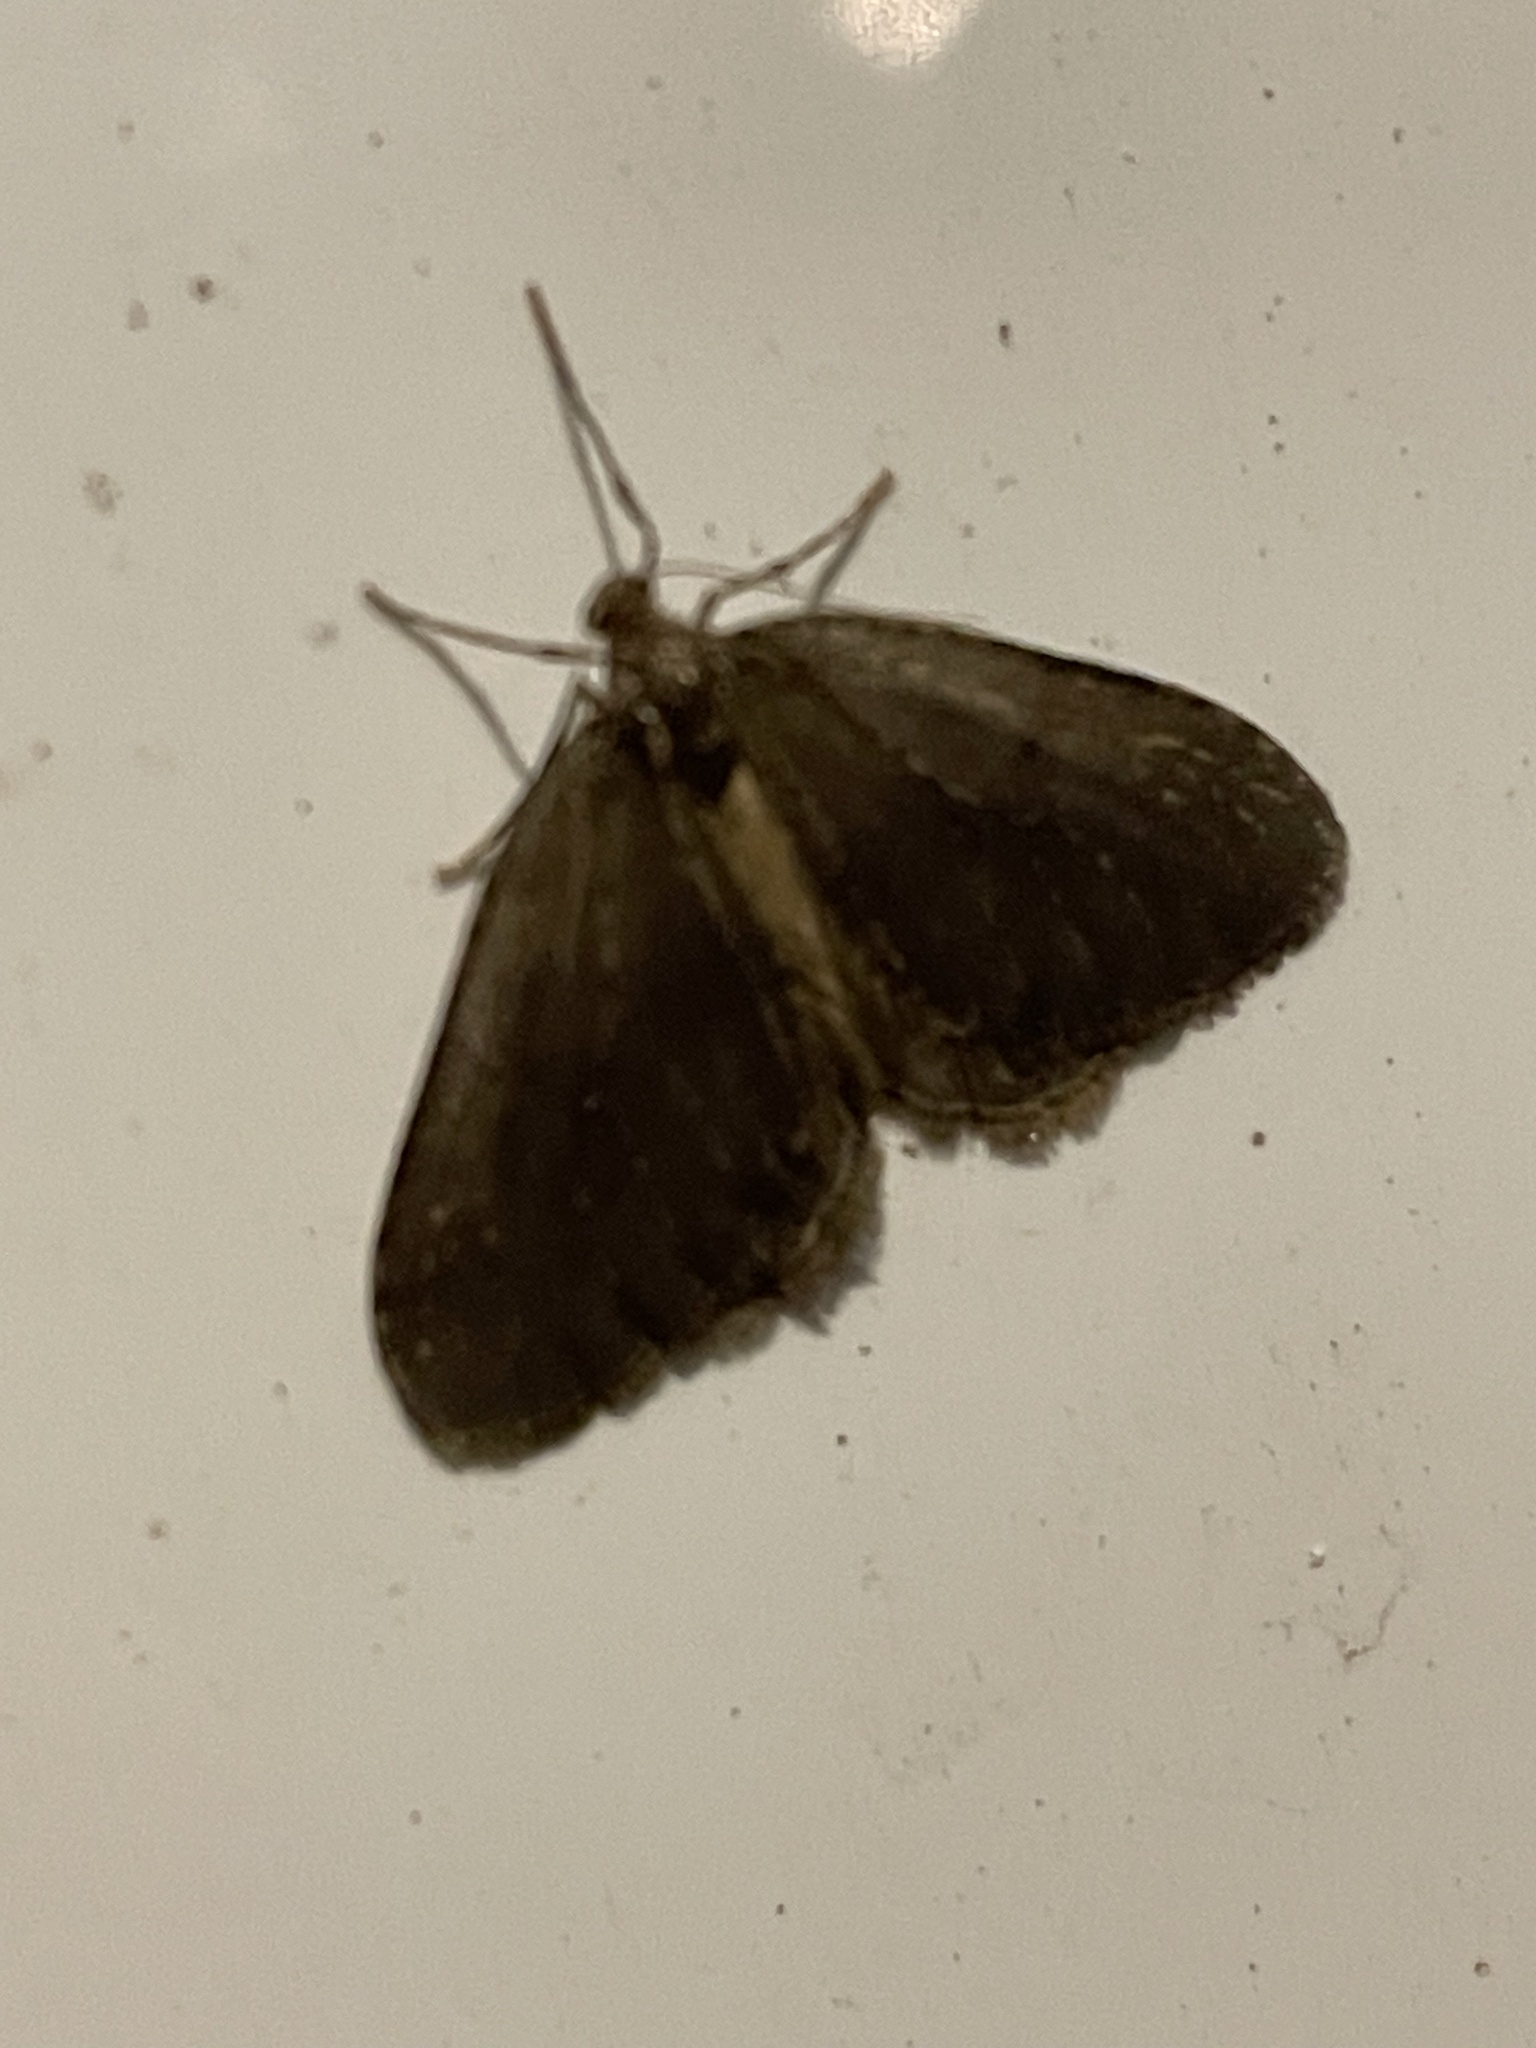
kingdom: Animalia
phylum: Arthropoda
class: Insecta
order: Lepidoptera
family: Geometridae
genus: Operophtera
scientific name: Operophtera
